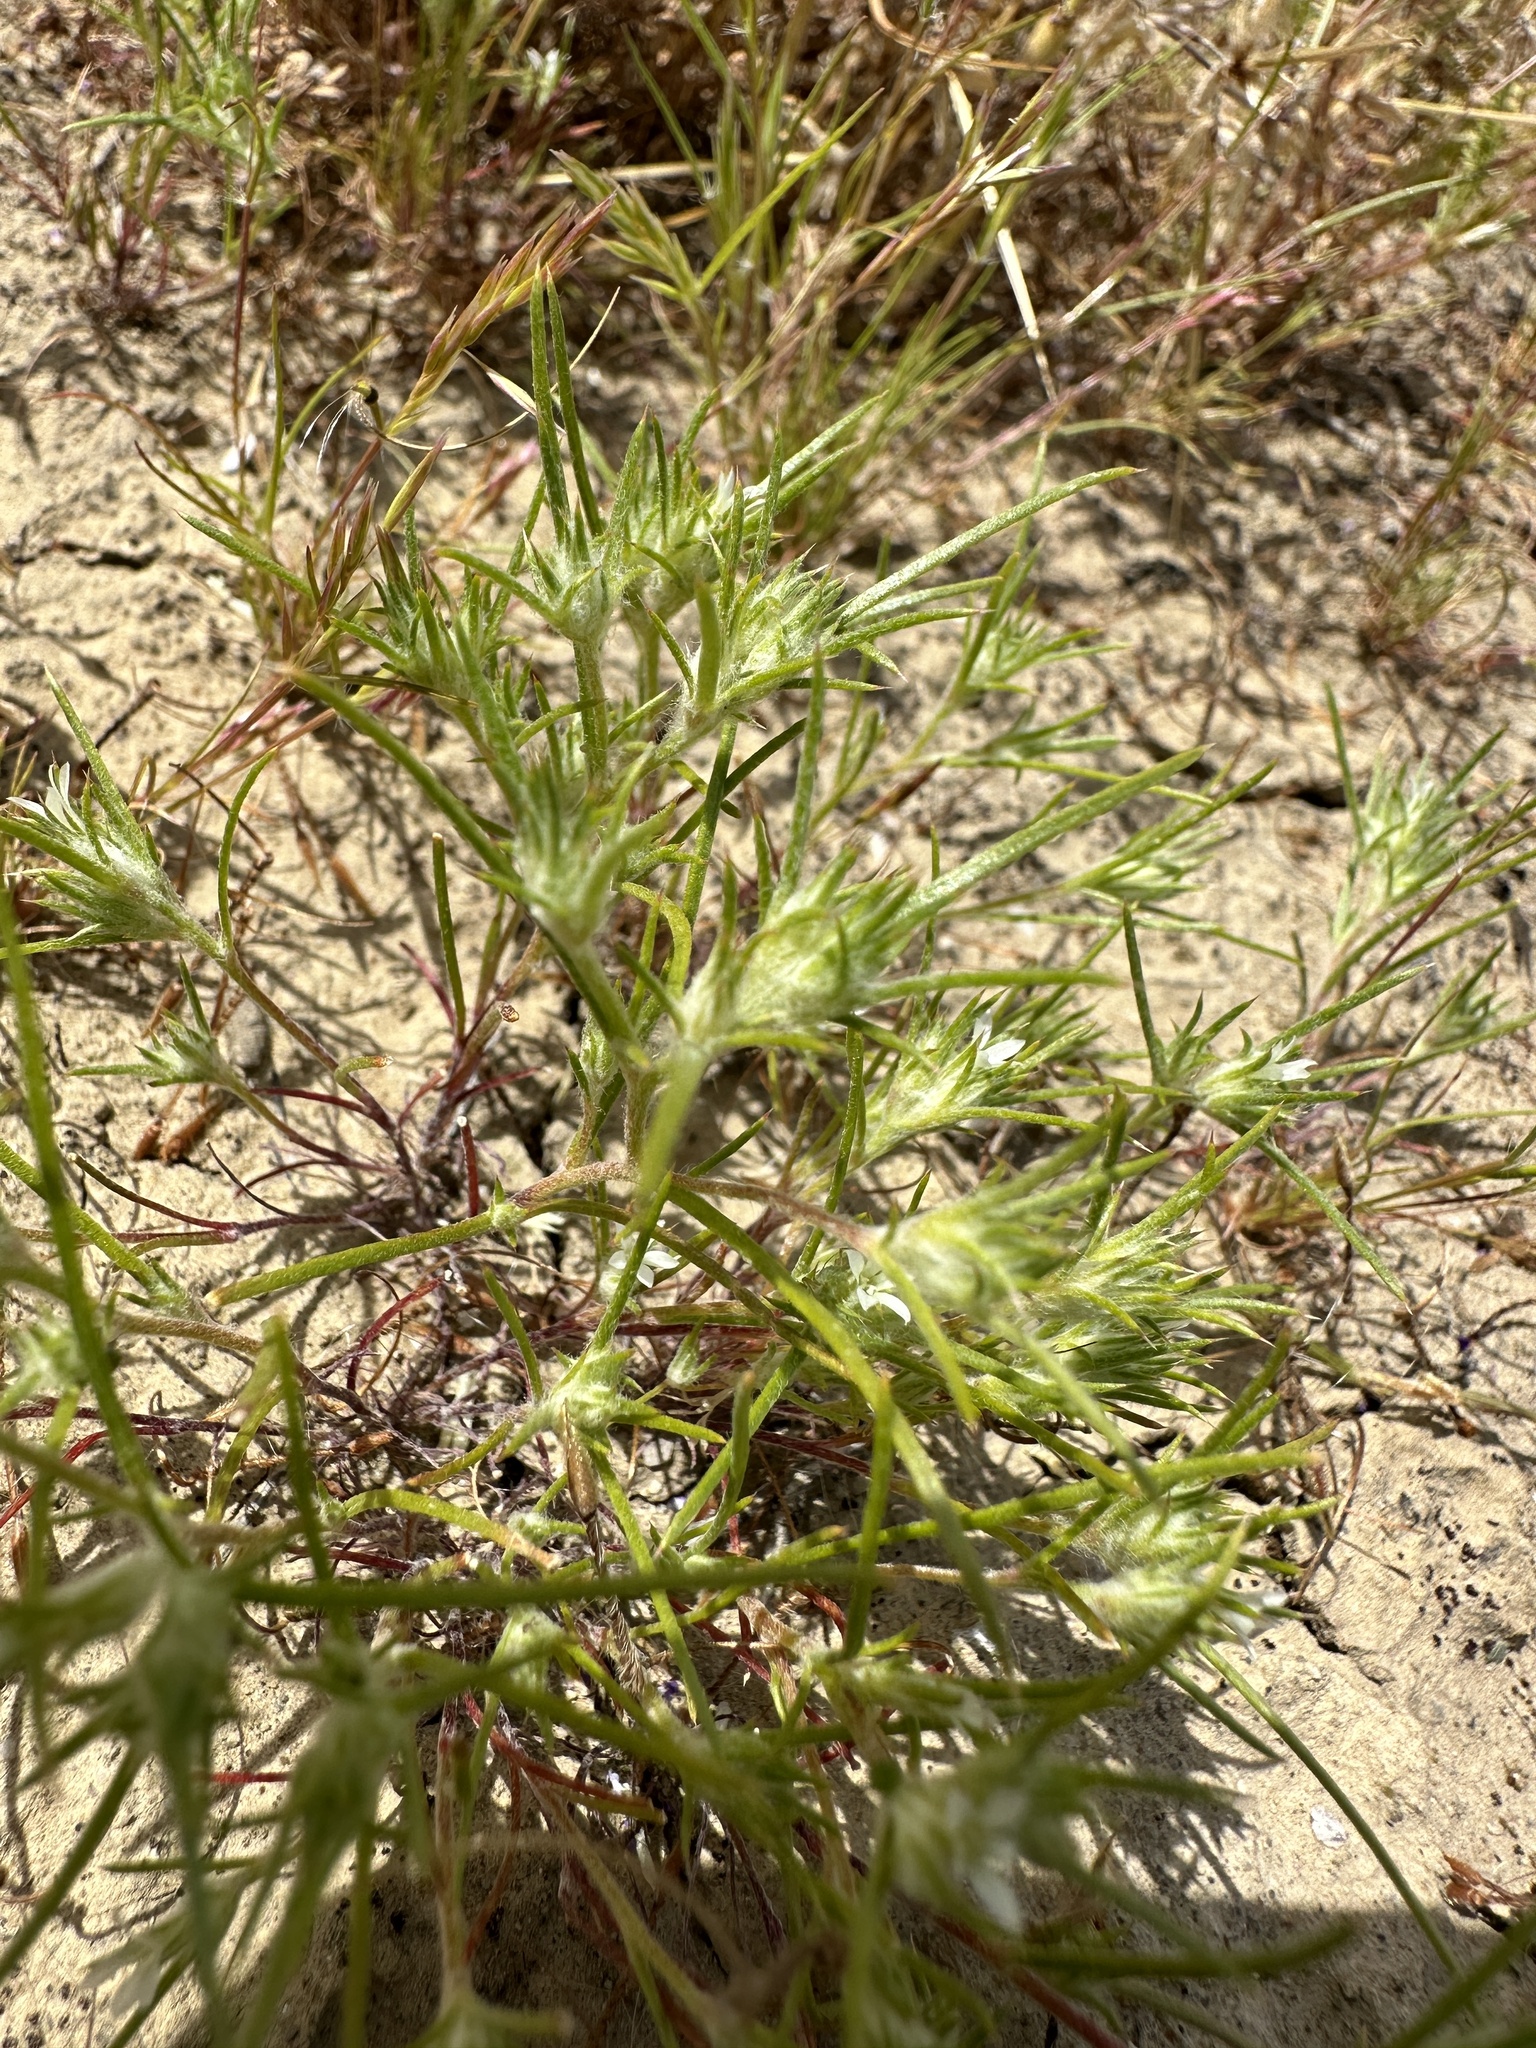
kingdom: Plantae
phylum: Tracheophyta
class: Magnoliopsida
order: Ericales
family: Polemoniaceae
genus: Eriastrum
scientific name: Eriastrum hooveri
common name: Hoover's woolly-star
